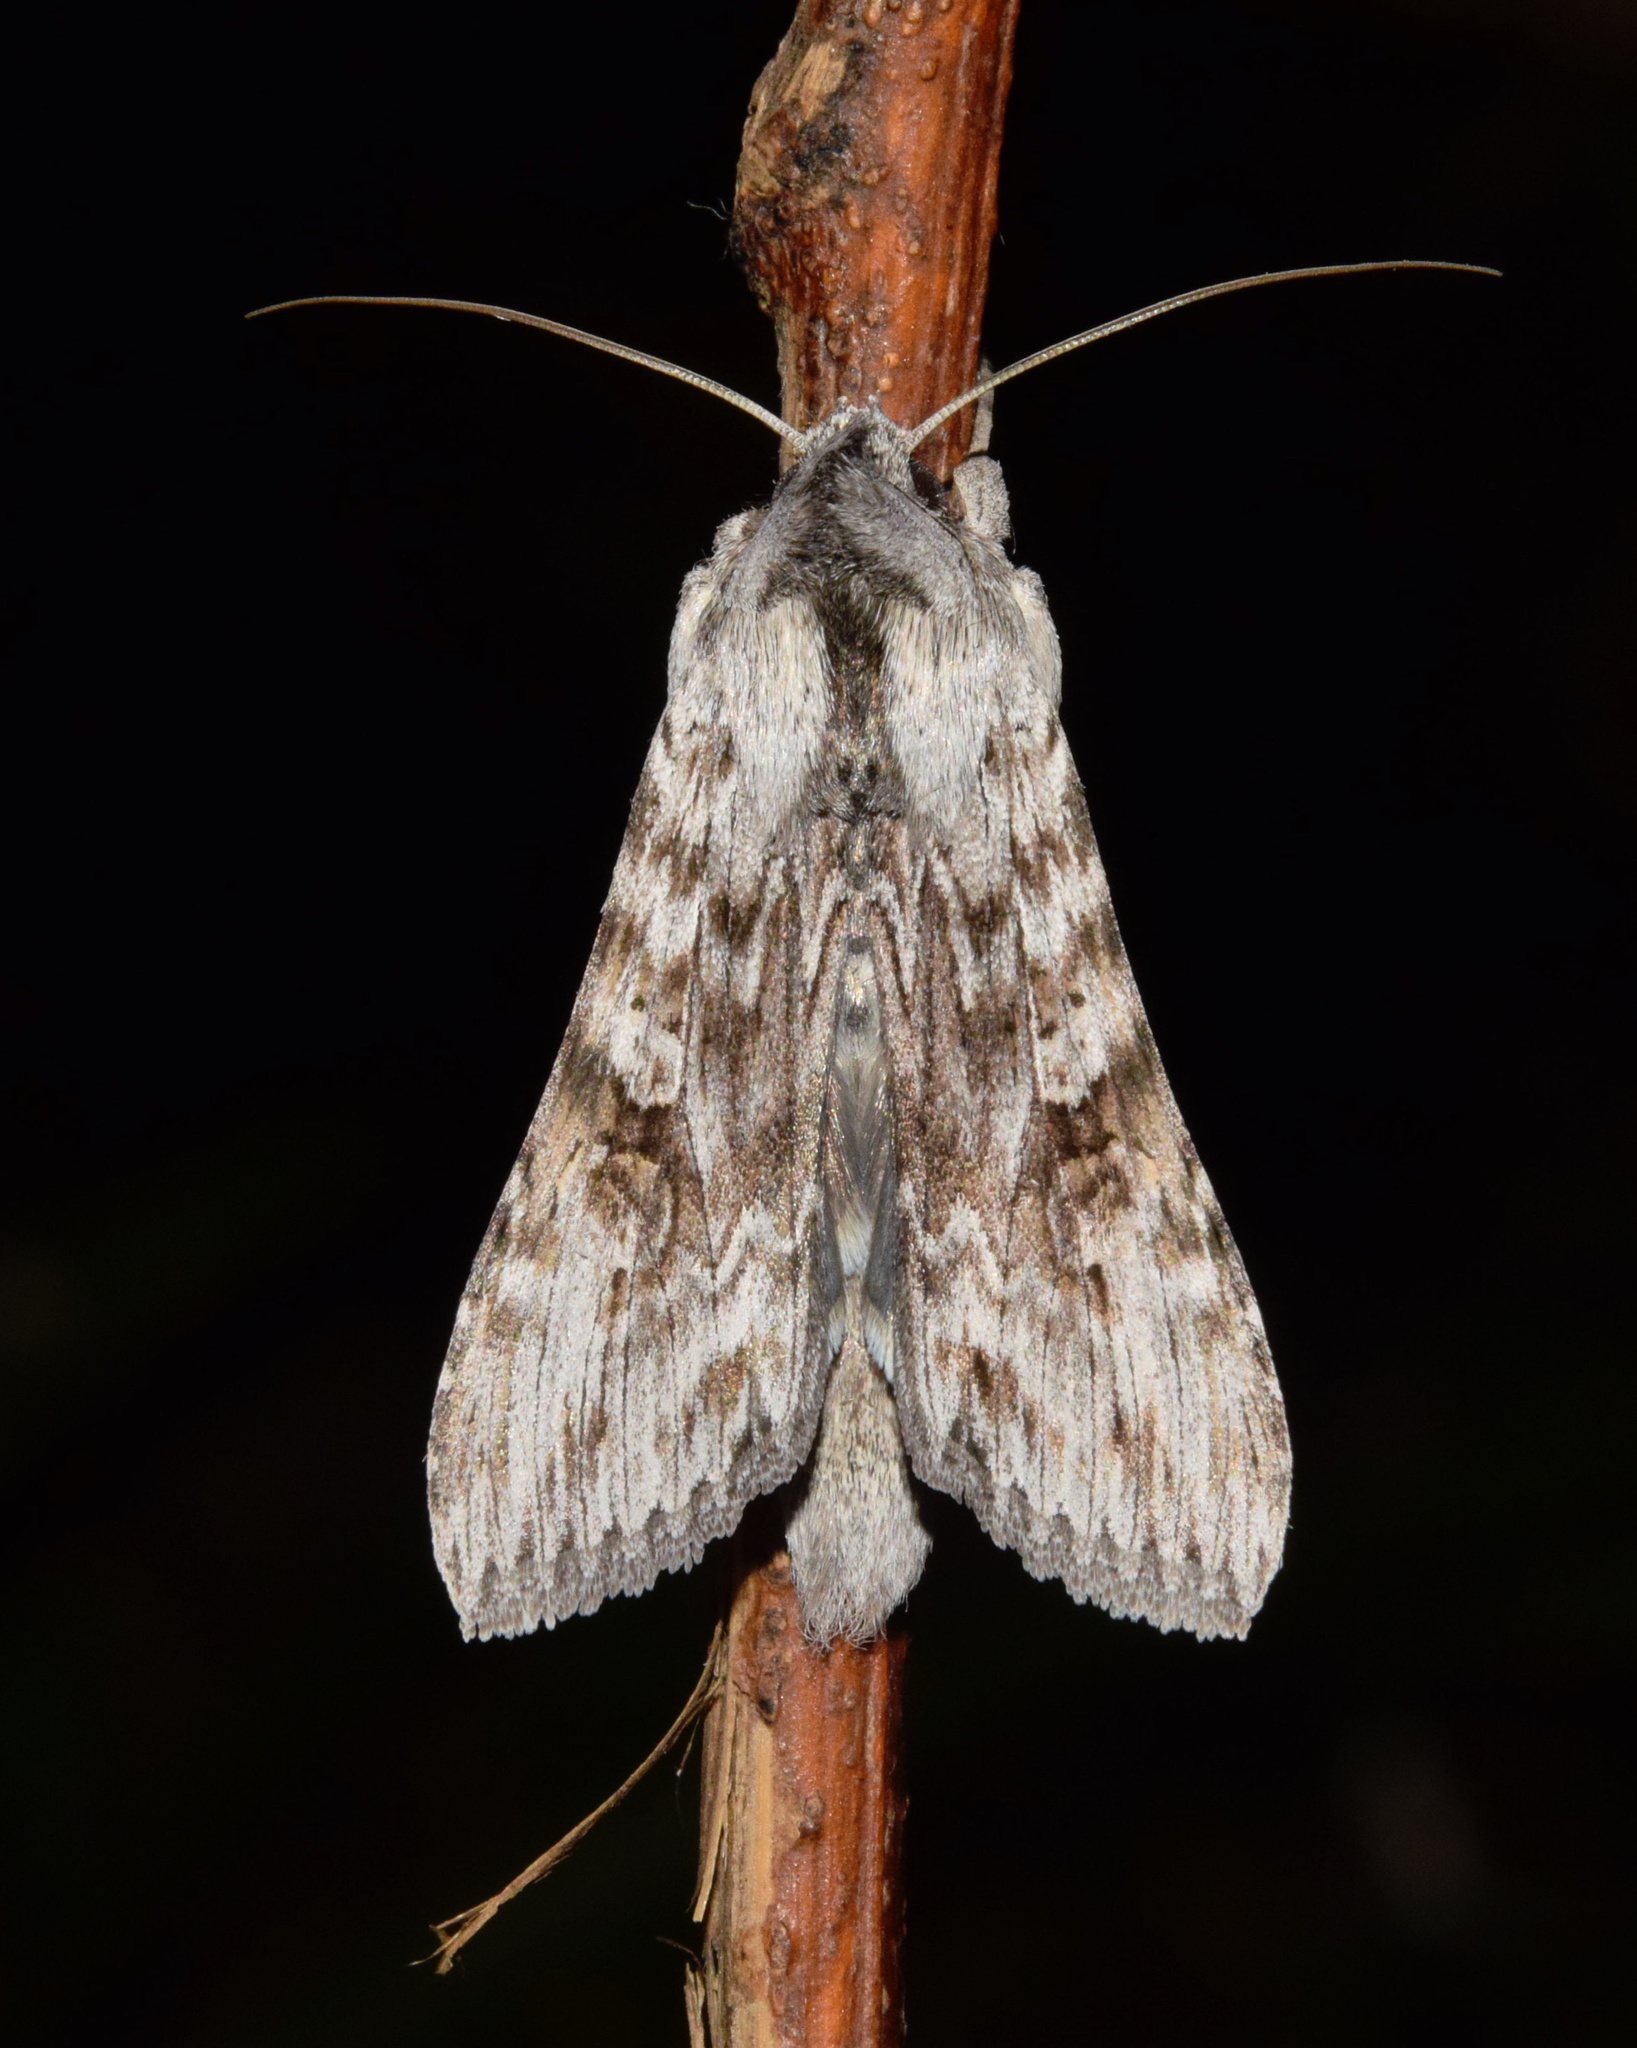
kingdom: Animalia
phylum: Arthropoda
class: Insecta
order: Lepidoptera
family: Noctuidae
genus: Cucullia
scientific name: Cucullia inaequalis
